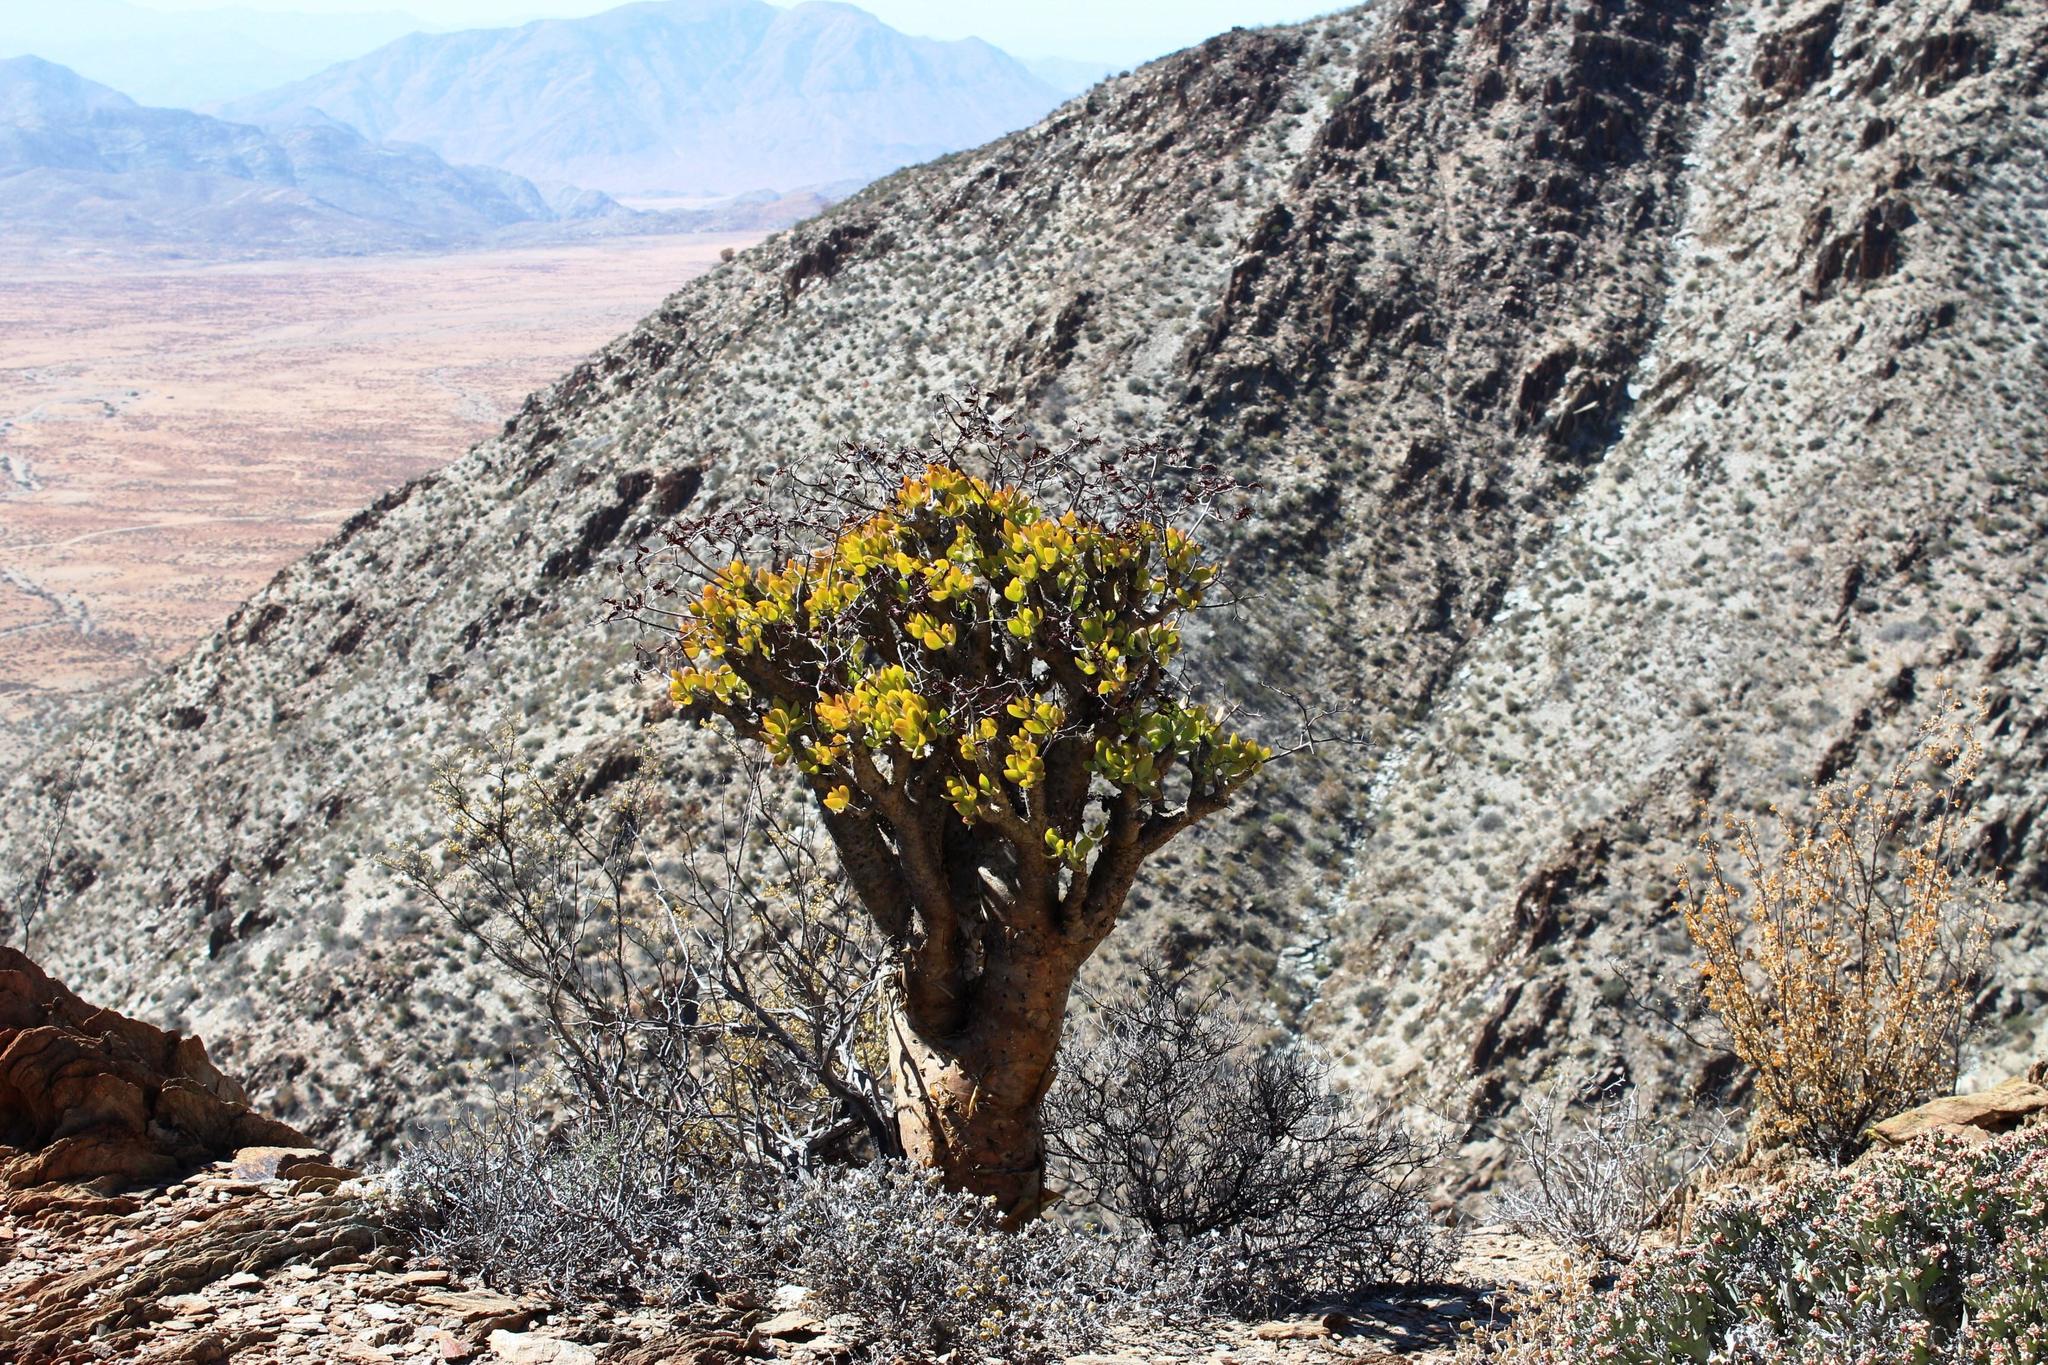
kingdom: Plantae
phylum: Tracheophyta
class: Magnoliopsida
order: Saxifragales
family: Crassulaceae
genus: Tylecodon
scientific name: Tylecodon paniculatus
